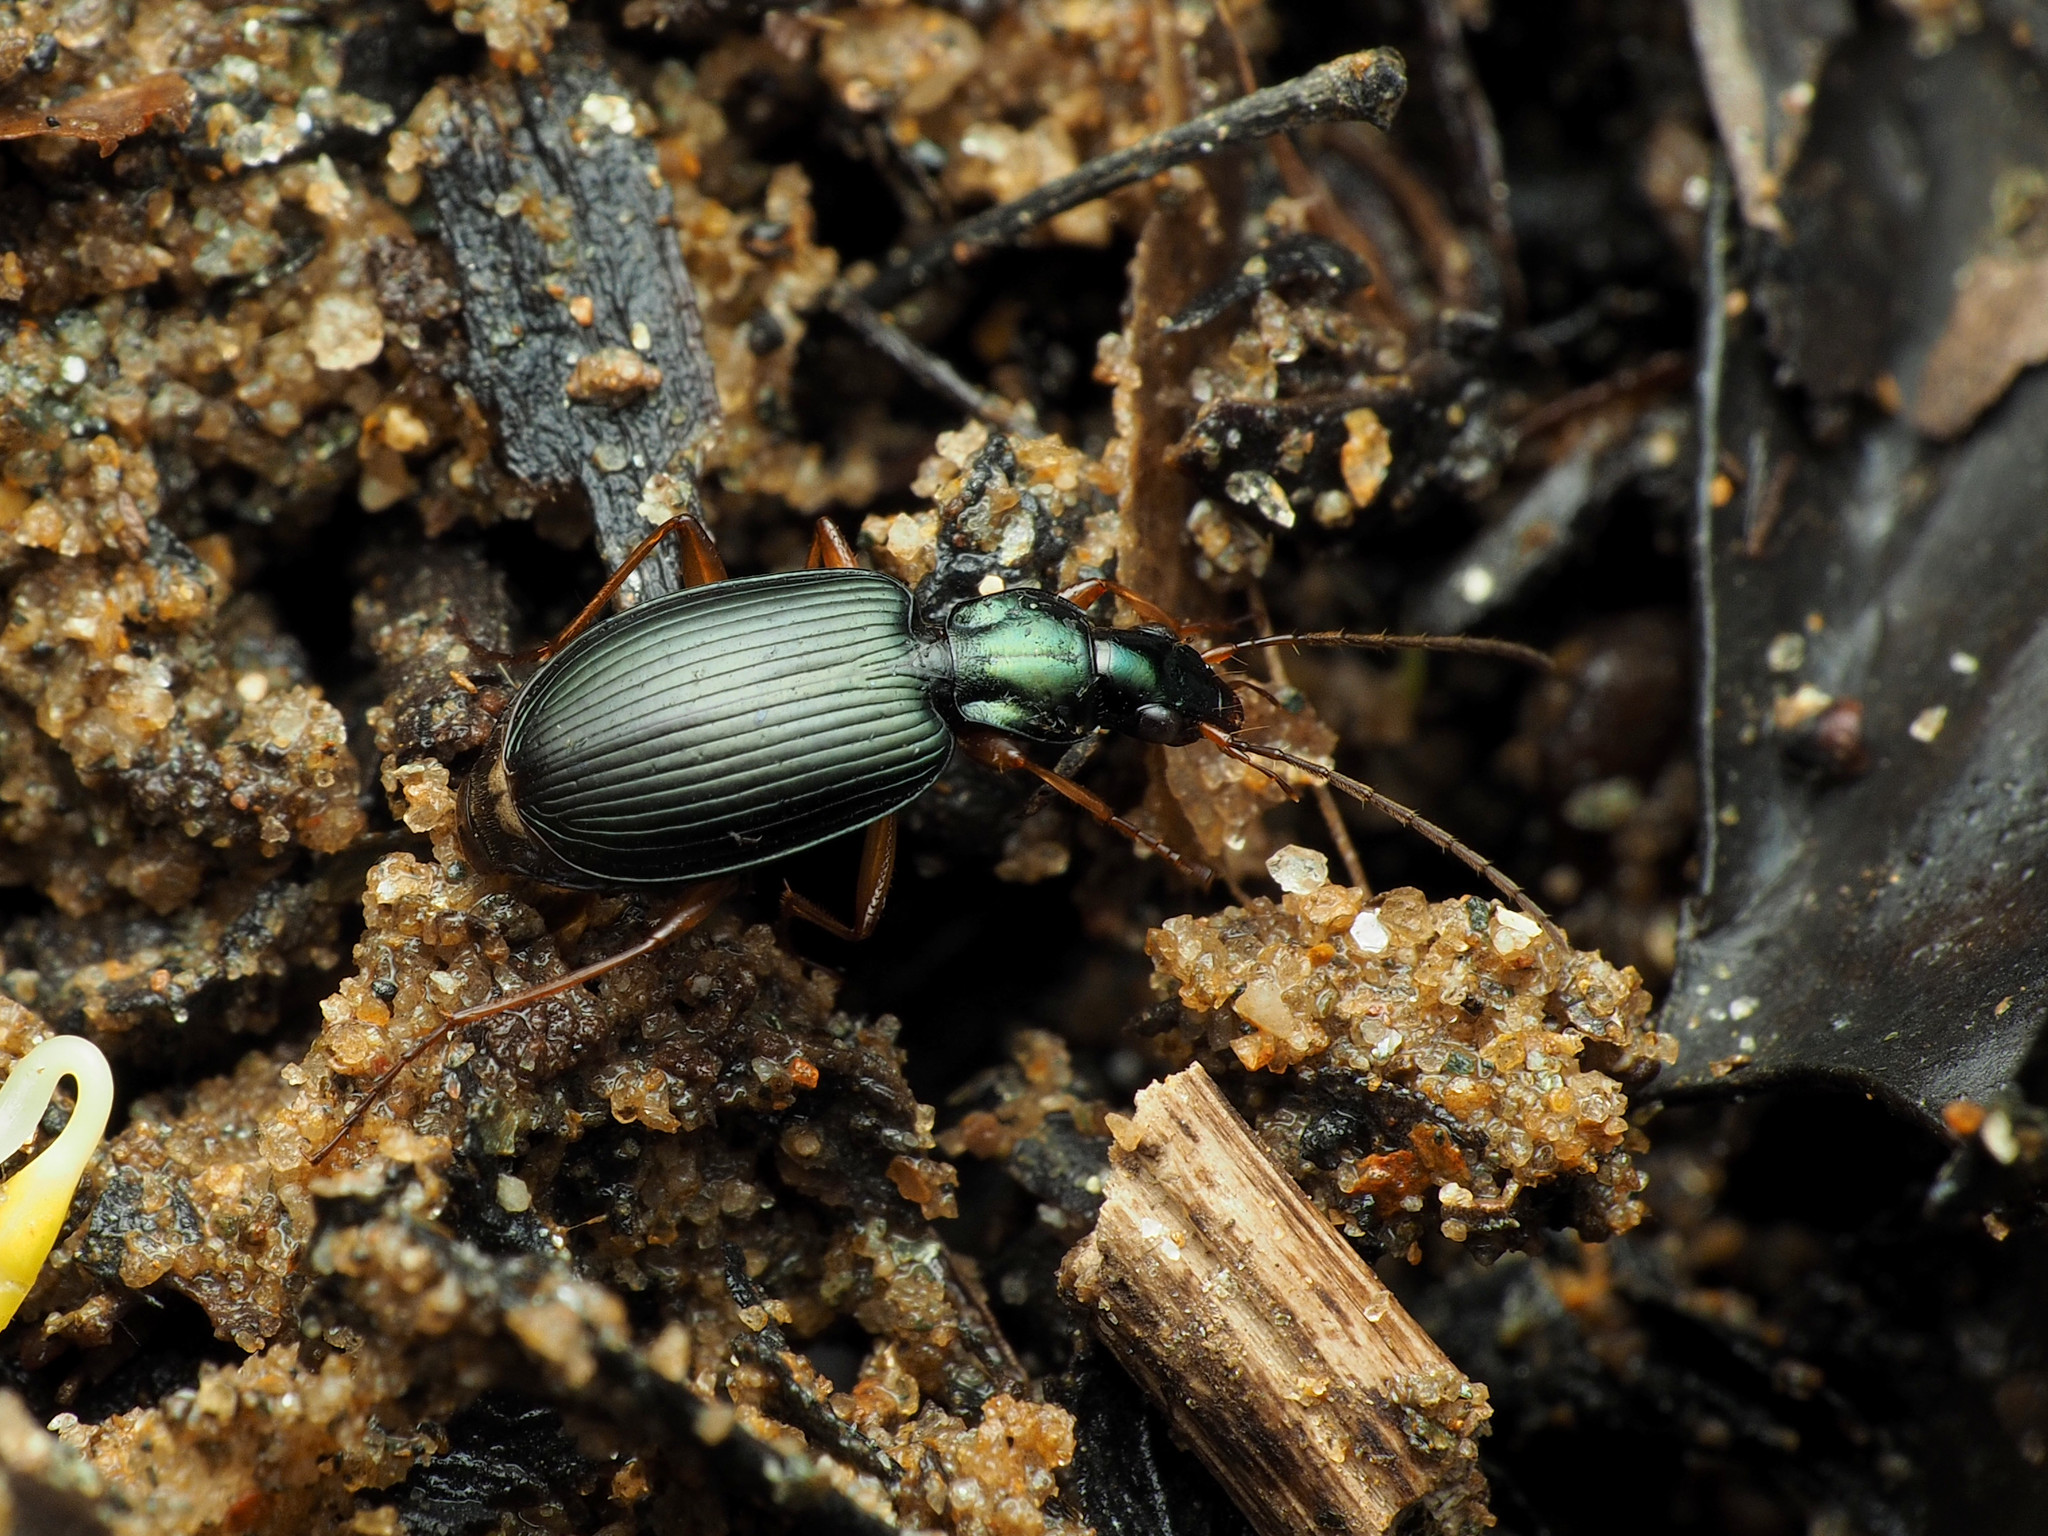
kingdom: Animalia
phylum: Arthropoda
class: Insecta
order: Coleoptera
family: Carabidae
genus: Agonum
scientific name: Agonum extensicolle
